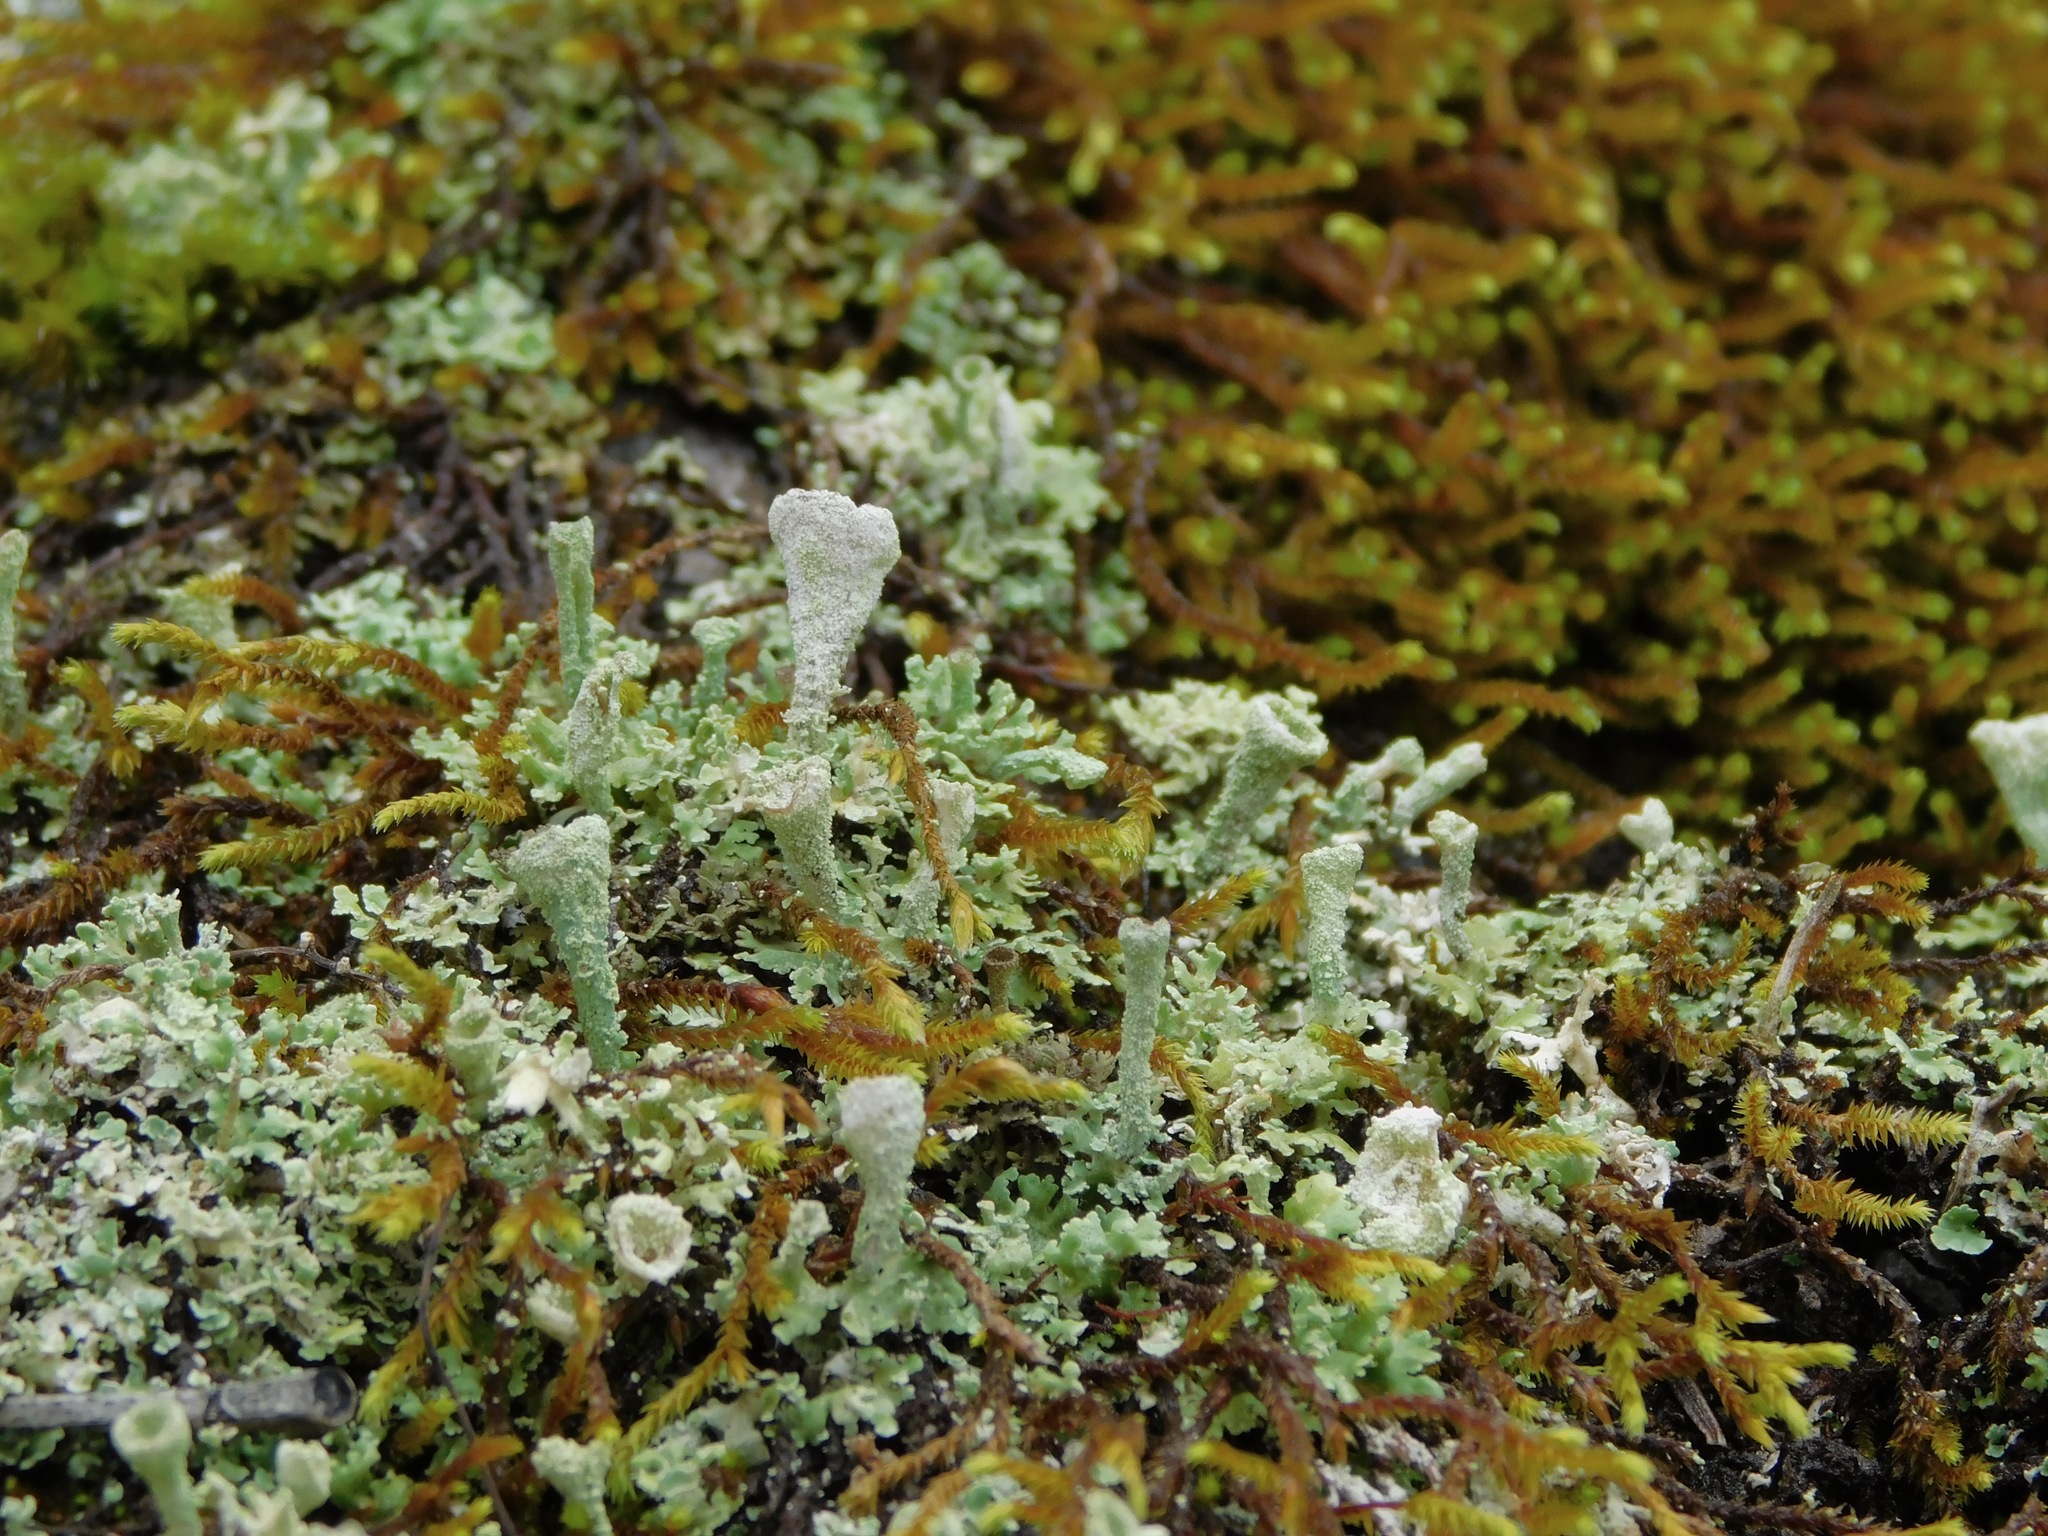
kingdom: Fungi
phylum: Ascomycota
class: Lecanoromycetes
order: Lecanorales
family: Cladoniaceae
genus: Cladonia
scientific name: Cladonia grayi
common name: Gray's cup lichen
